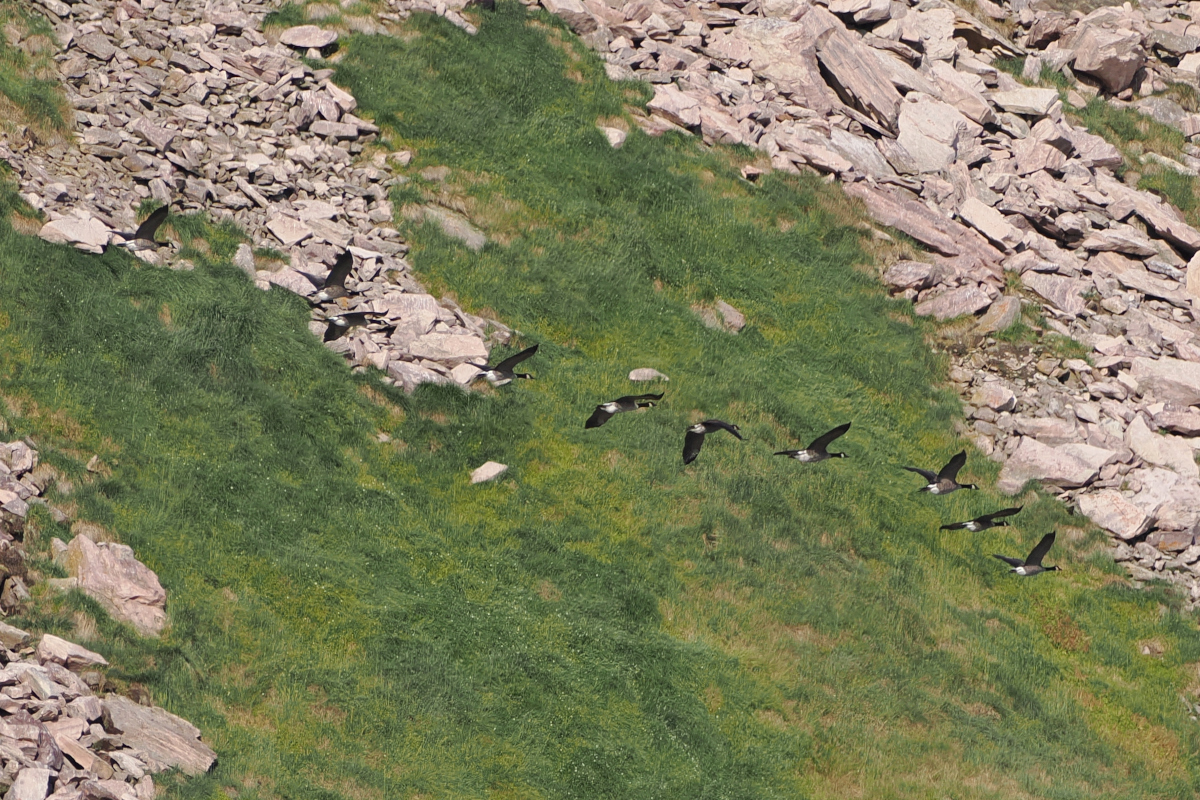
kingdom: Animalia
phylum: Chordata
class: Aves
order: Anseriformes
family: Anatidae
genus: Branta
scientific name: Branta canadensis
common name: Canada goose
